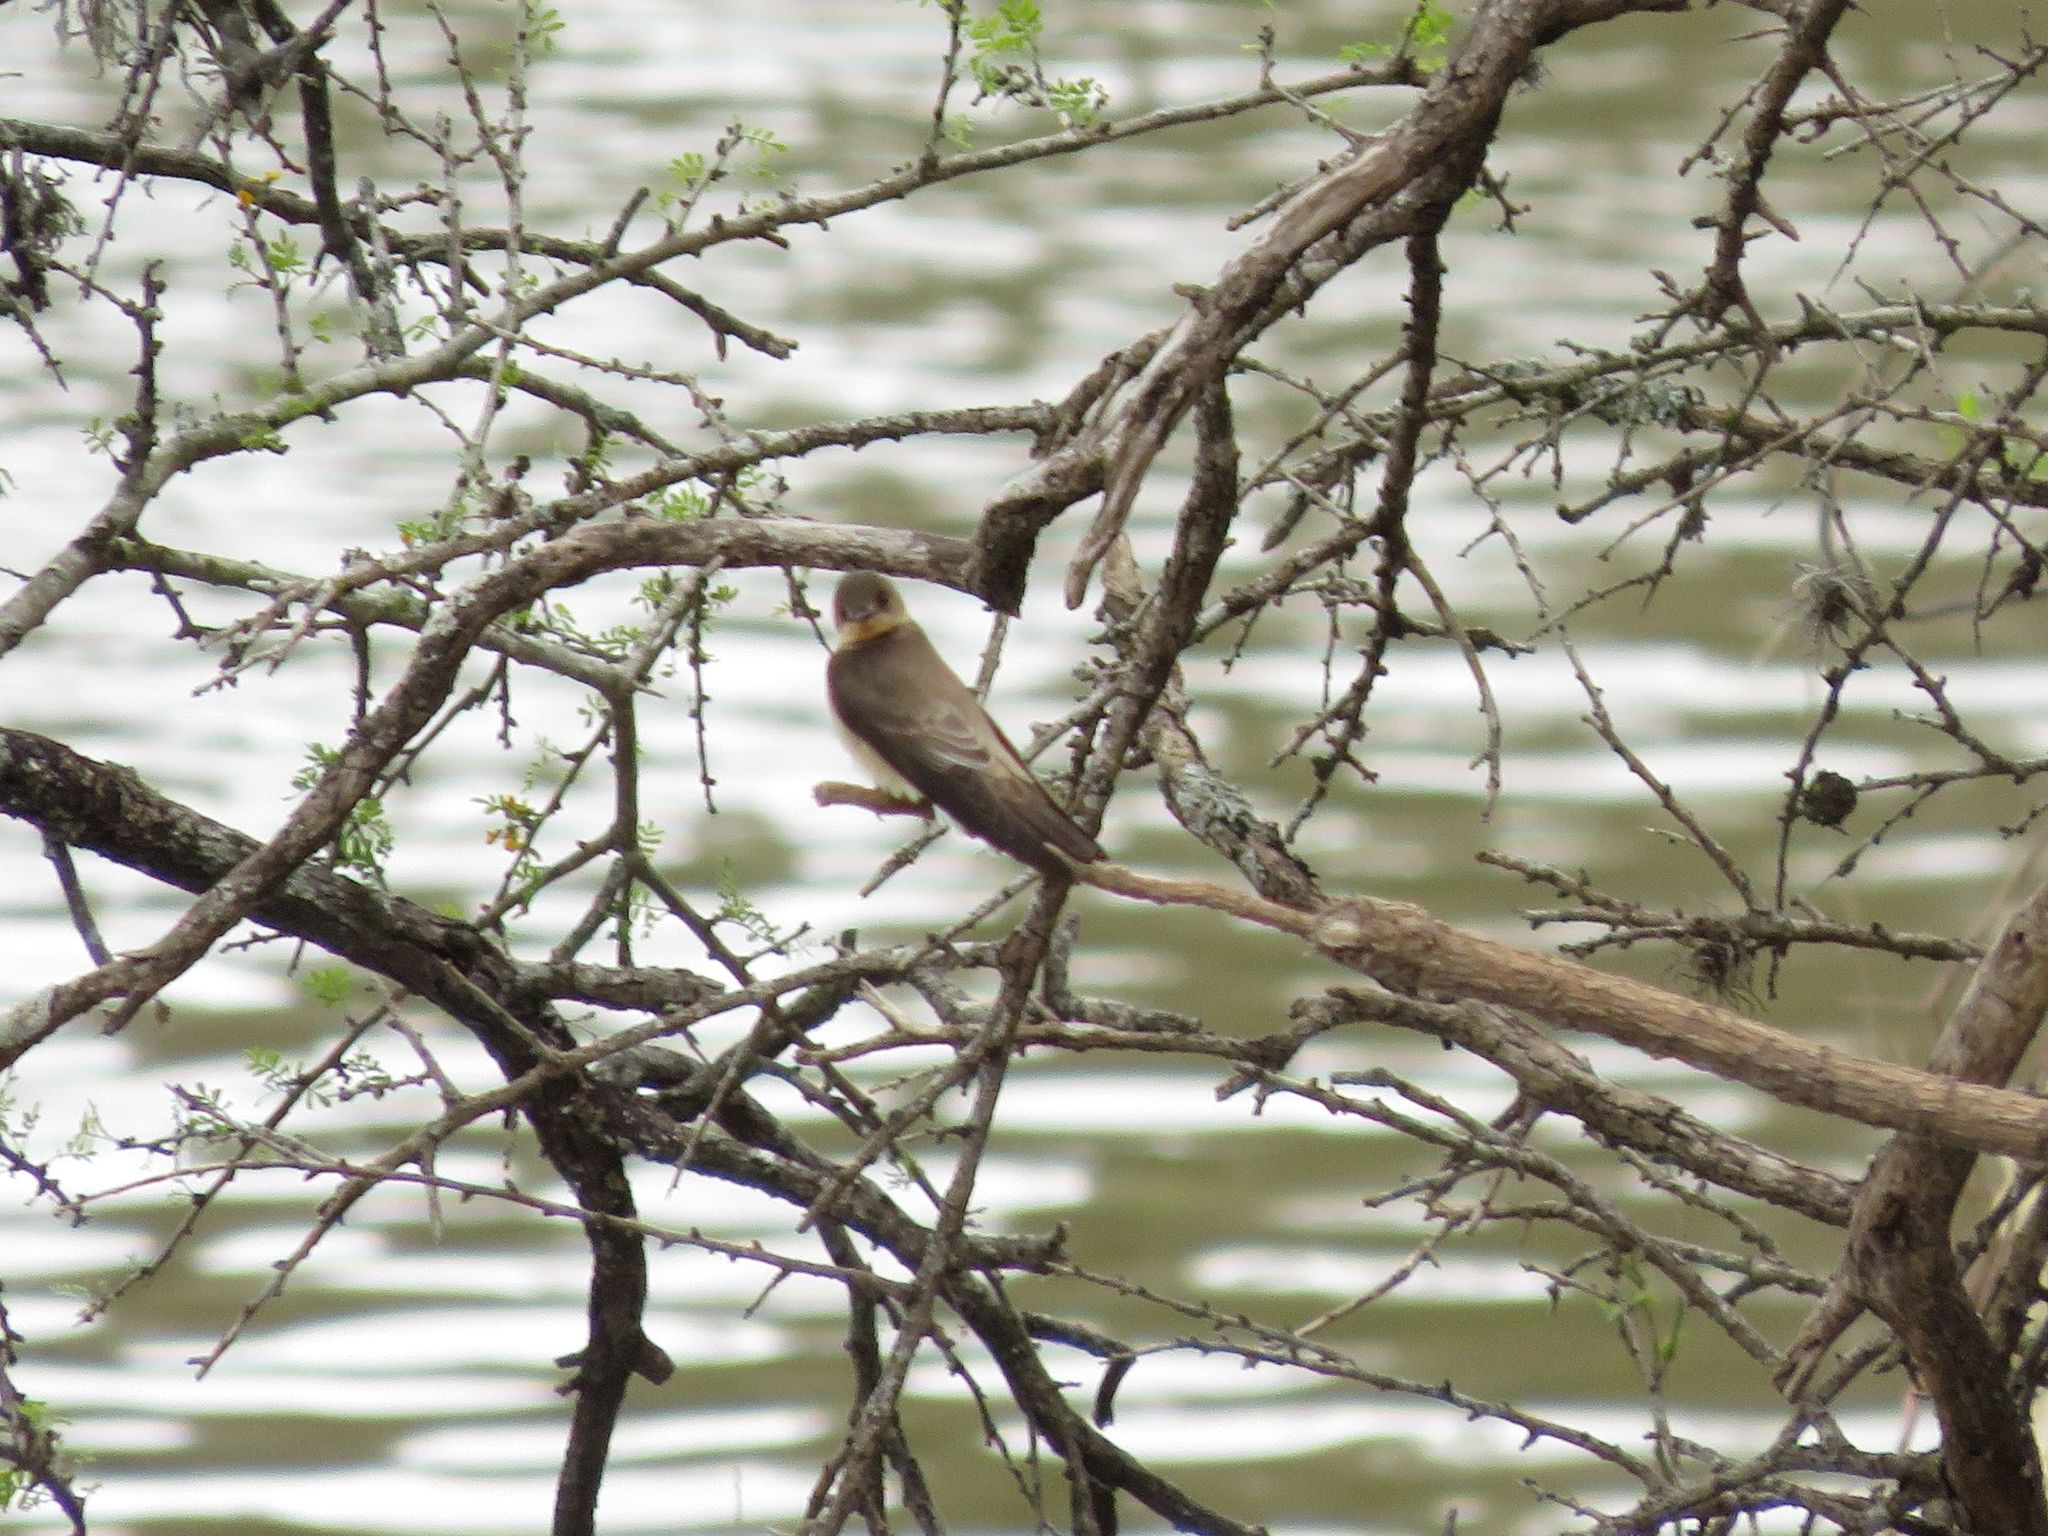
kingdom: Animalia
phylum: Chordata
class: Aves
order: Passeriformes
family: Hirundinidae
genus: Stelgidopteryx
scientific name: Stelgidopteryx ruficollis
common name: Southern rough-winged swallow
